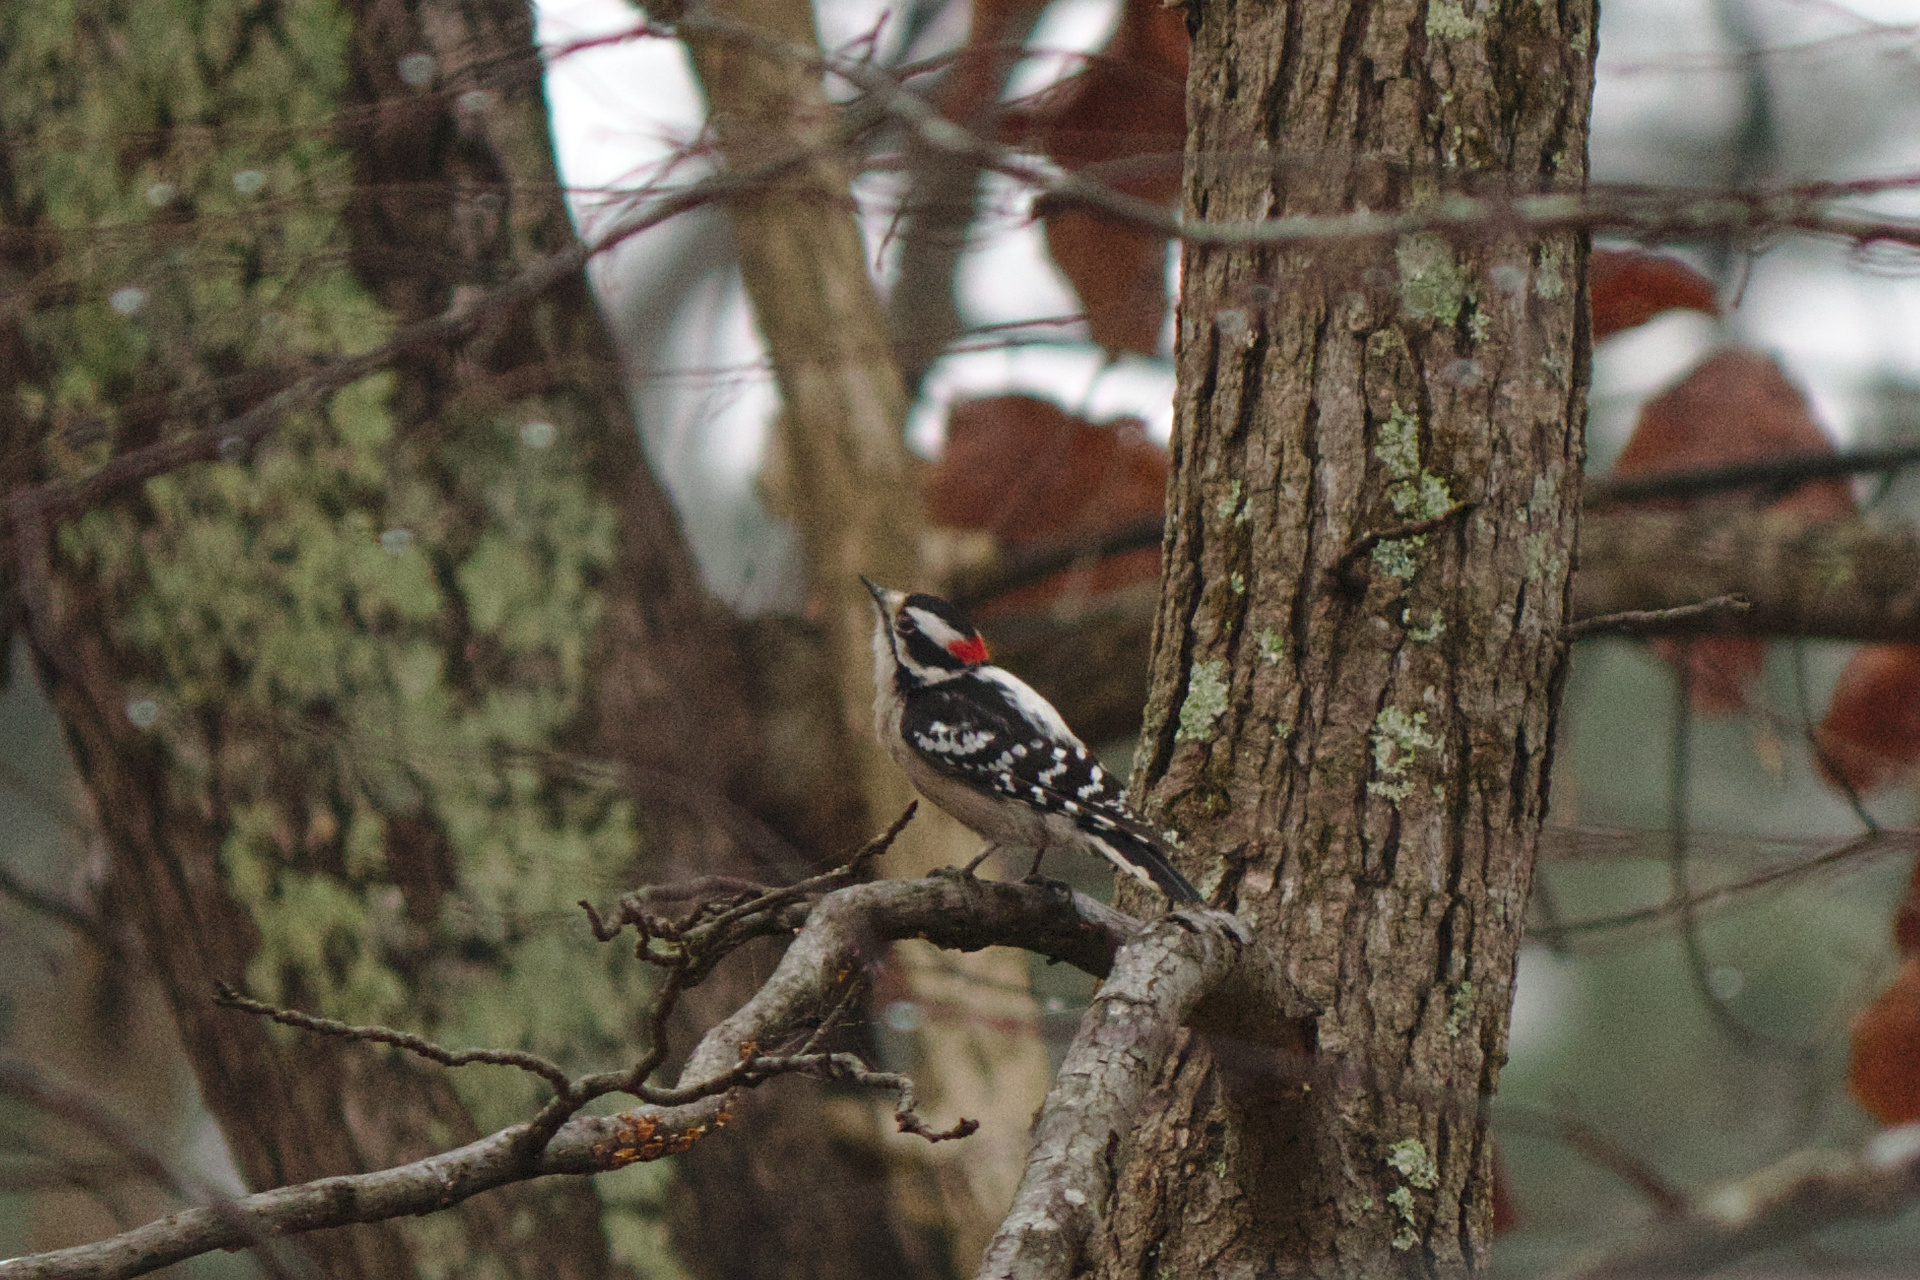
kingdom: Animalia
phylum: Chordata
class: Aves
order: Piciformes
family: Picidae
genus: Dryobates
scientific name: Dryobates pubescens
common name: Downy woodpecker
